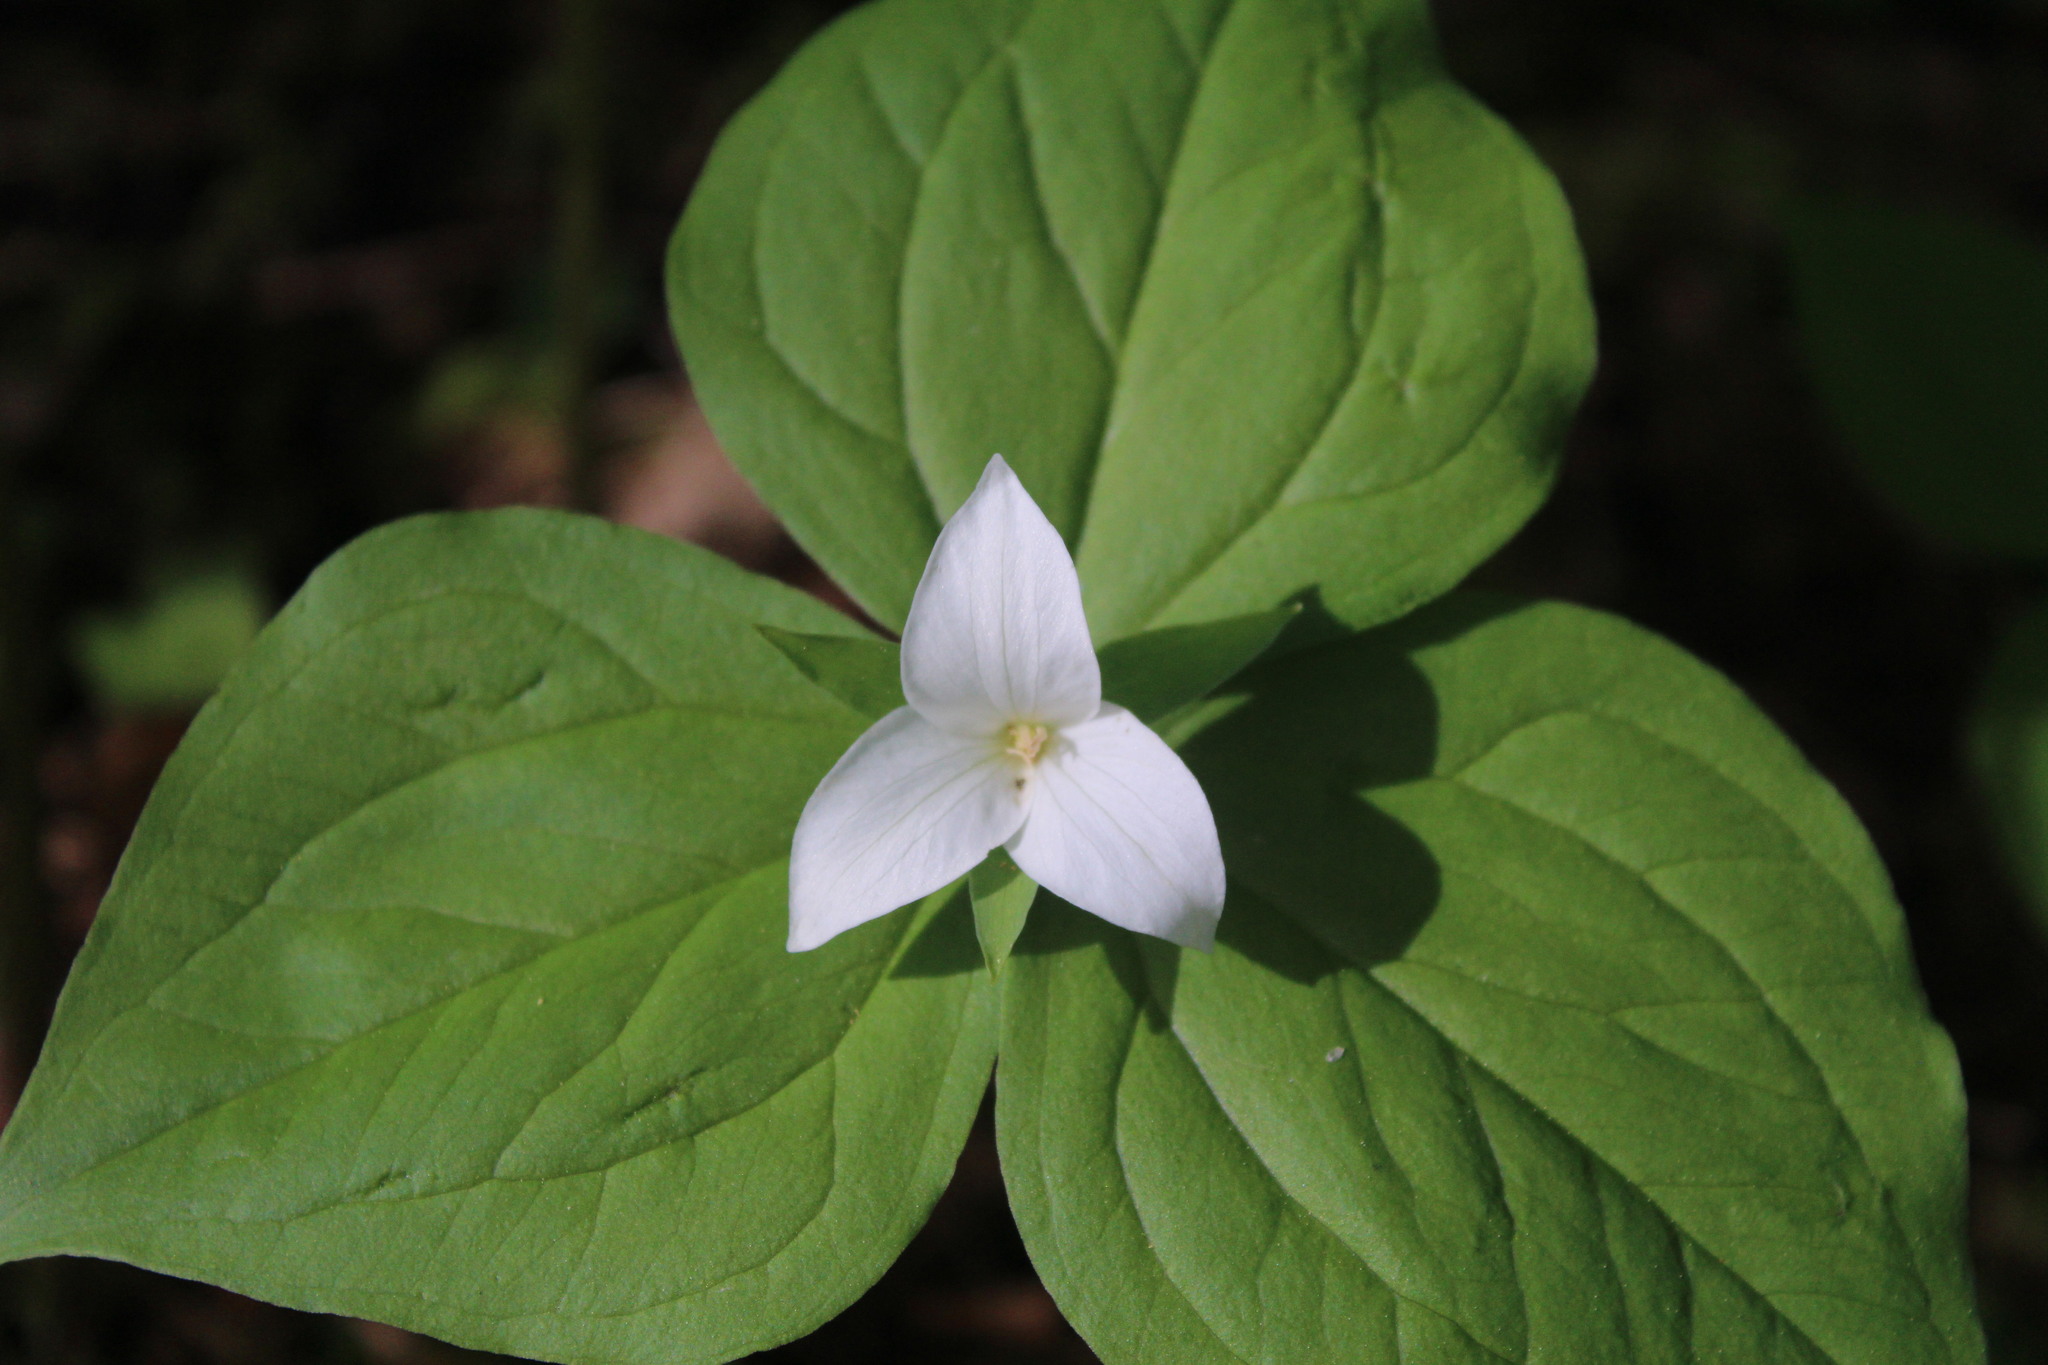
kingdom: Plantae
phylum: Tracheophyta
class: Liliopsida
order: Liliales
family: Melanthiaceae
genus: Trillium
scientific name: Trillium ovatum
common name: Pacific trillium
